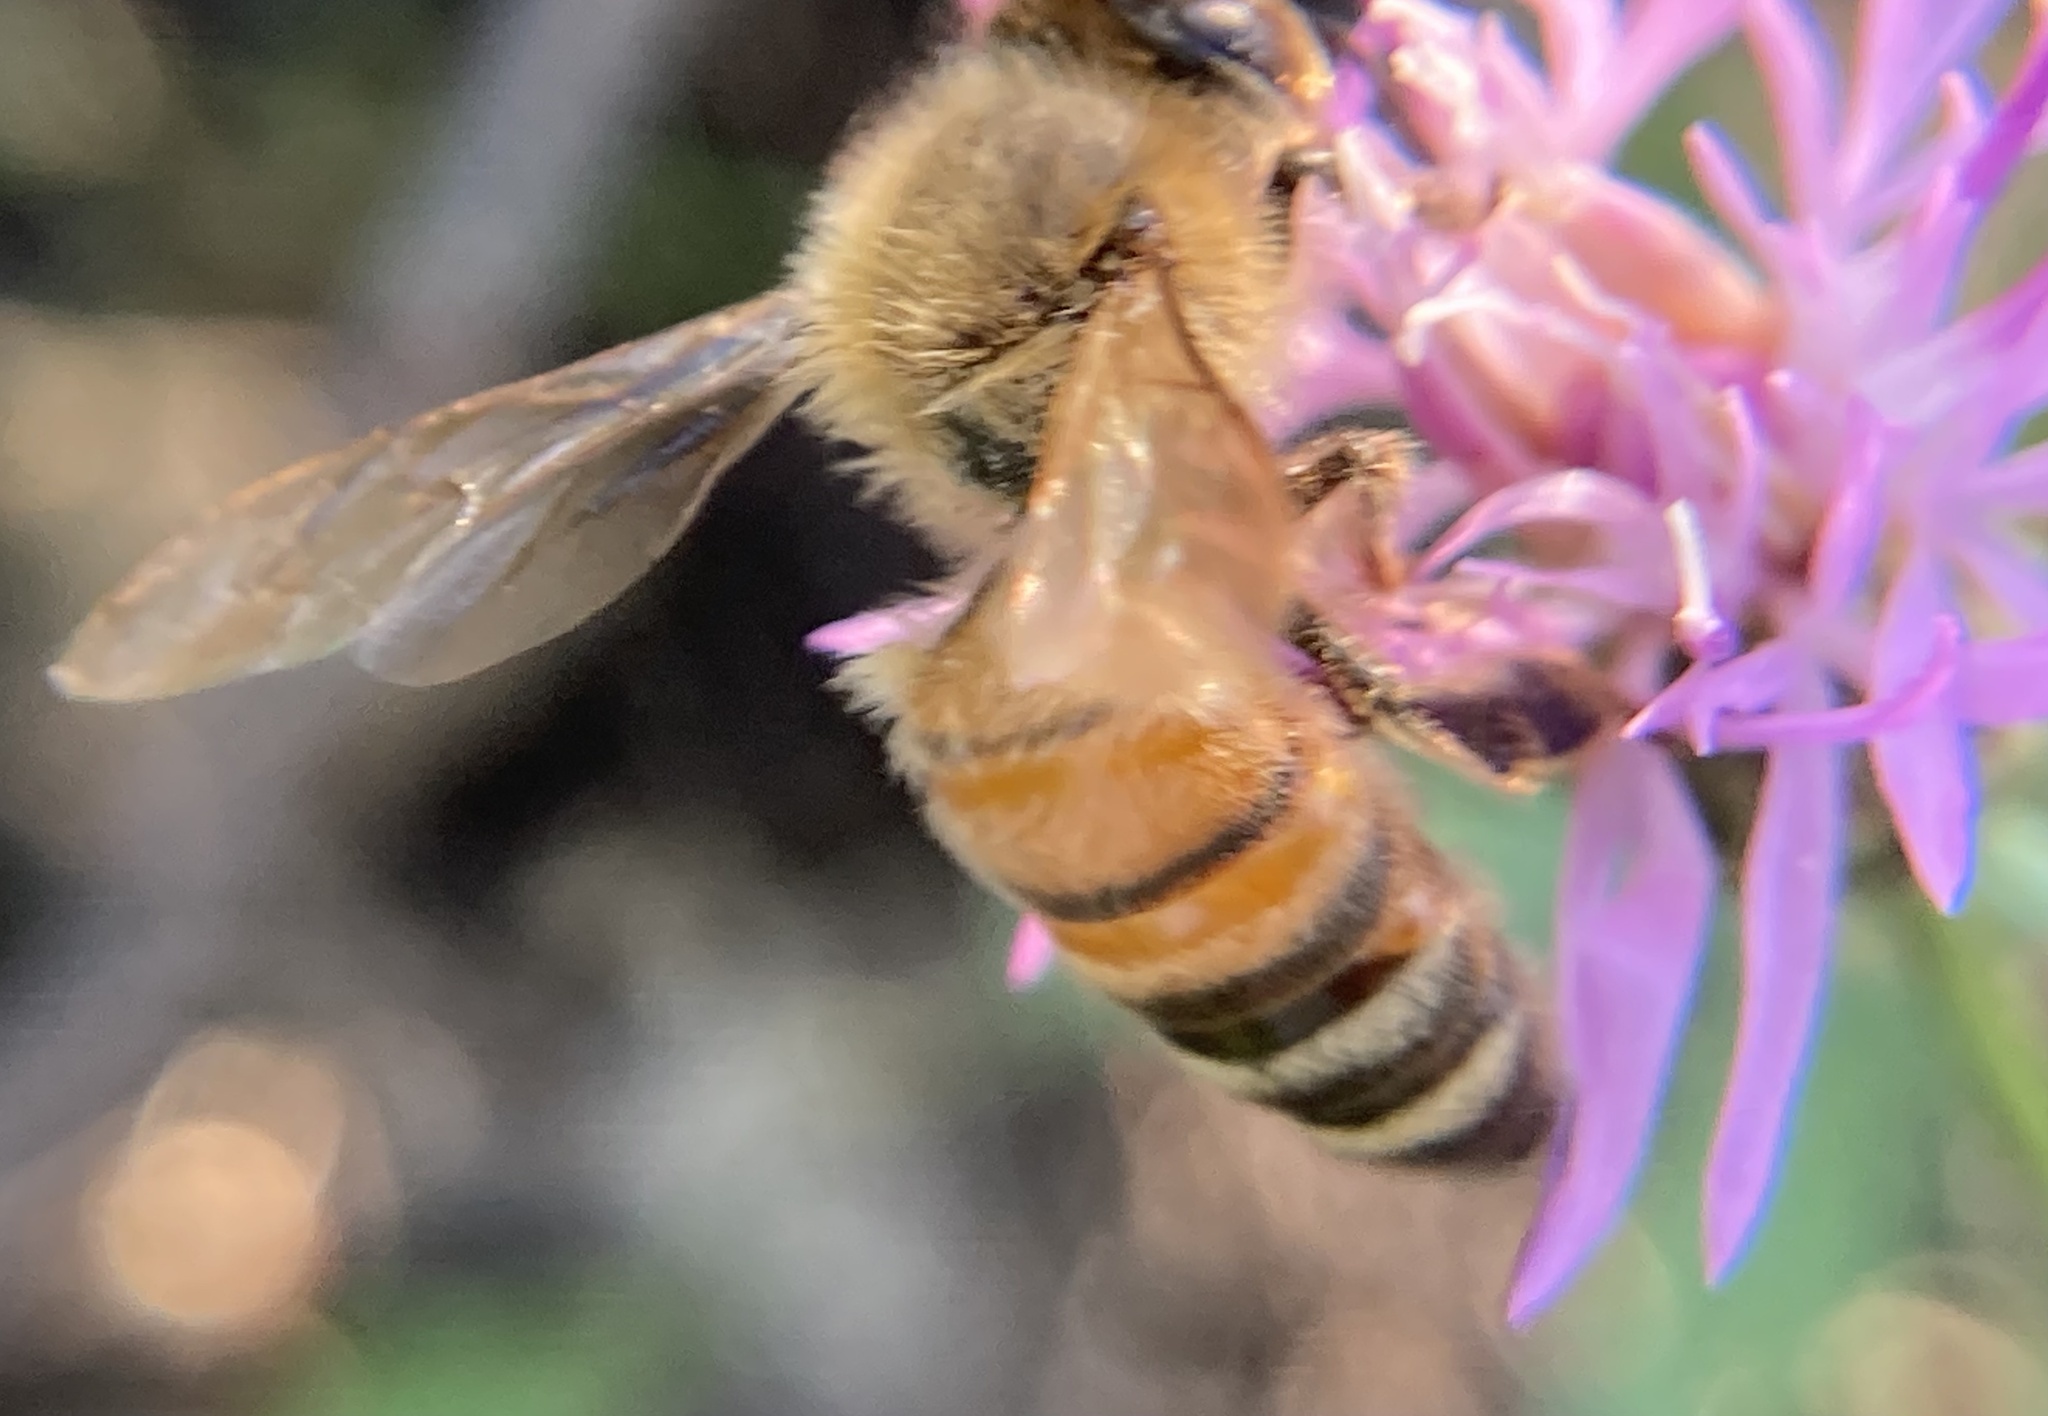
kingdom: Animalia
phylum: Arthropoda
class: Insecta
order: Hymenoptera
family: Apidae
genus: Apis
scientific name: Apis mellifera
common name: Honey bee
